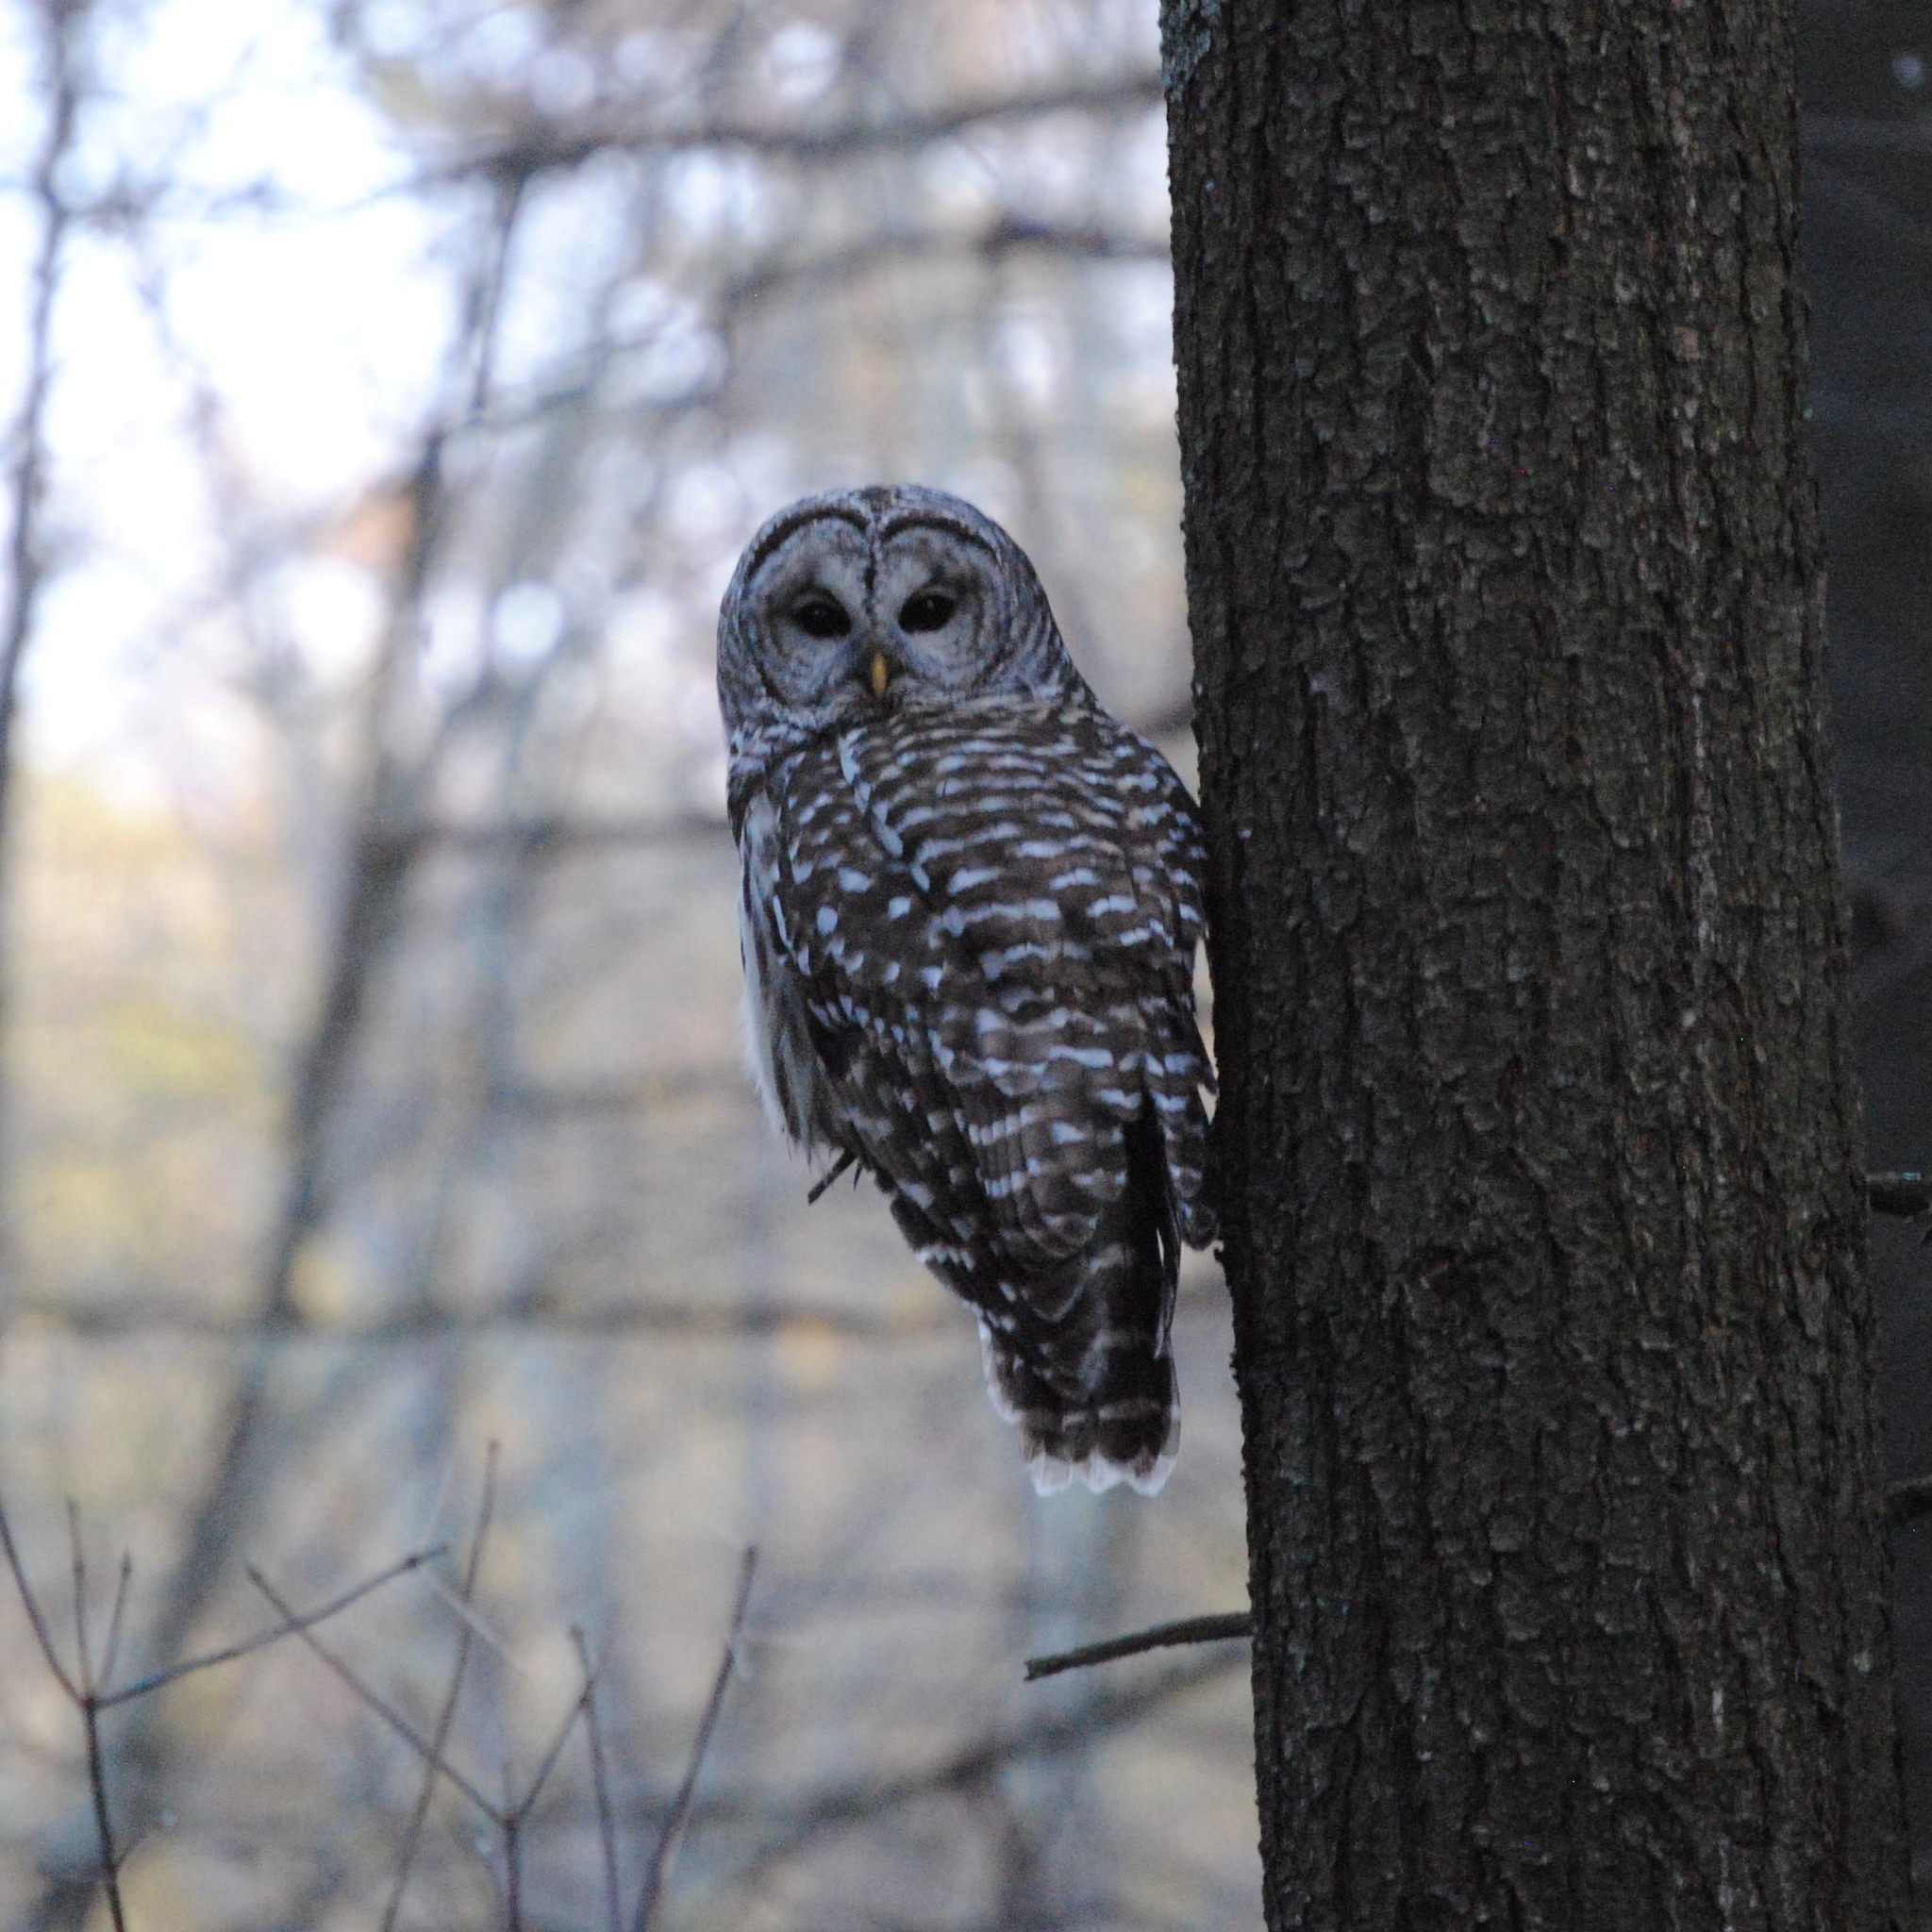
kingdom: Animalia
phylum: Chordata
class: Aves
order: Strigiformes
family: Strigidae
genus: Strix
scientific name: Strix varia
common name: Barred owl
